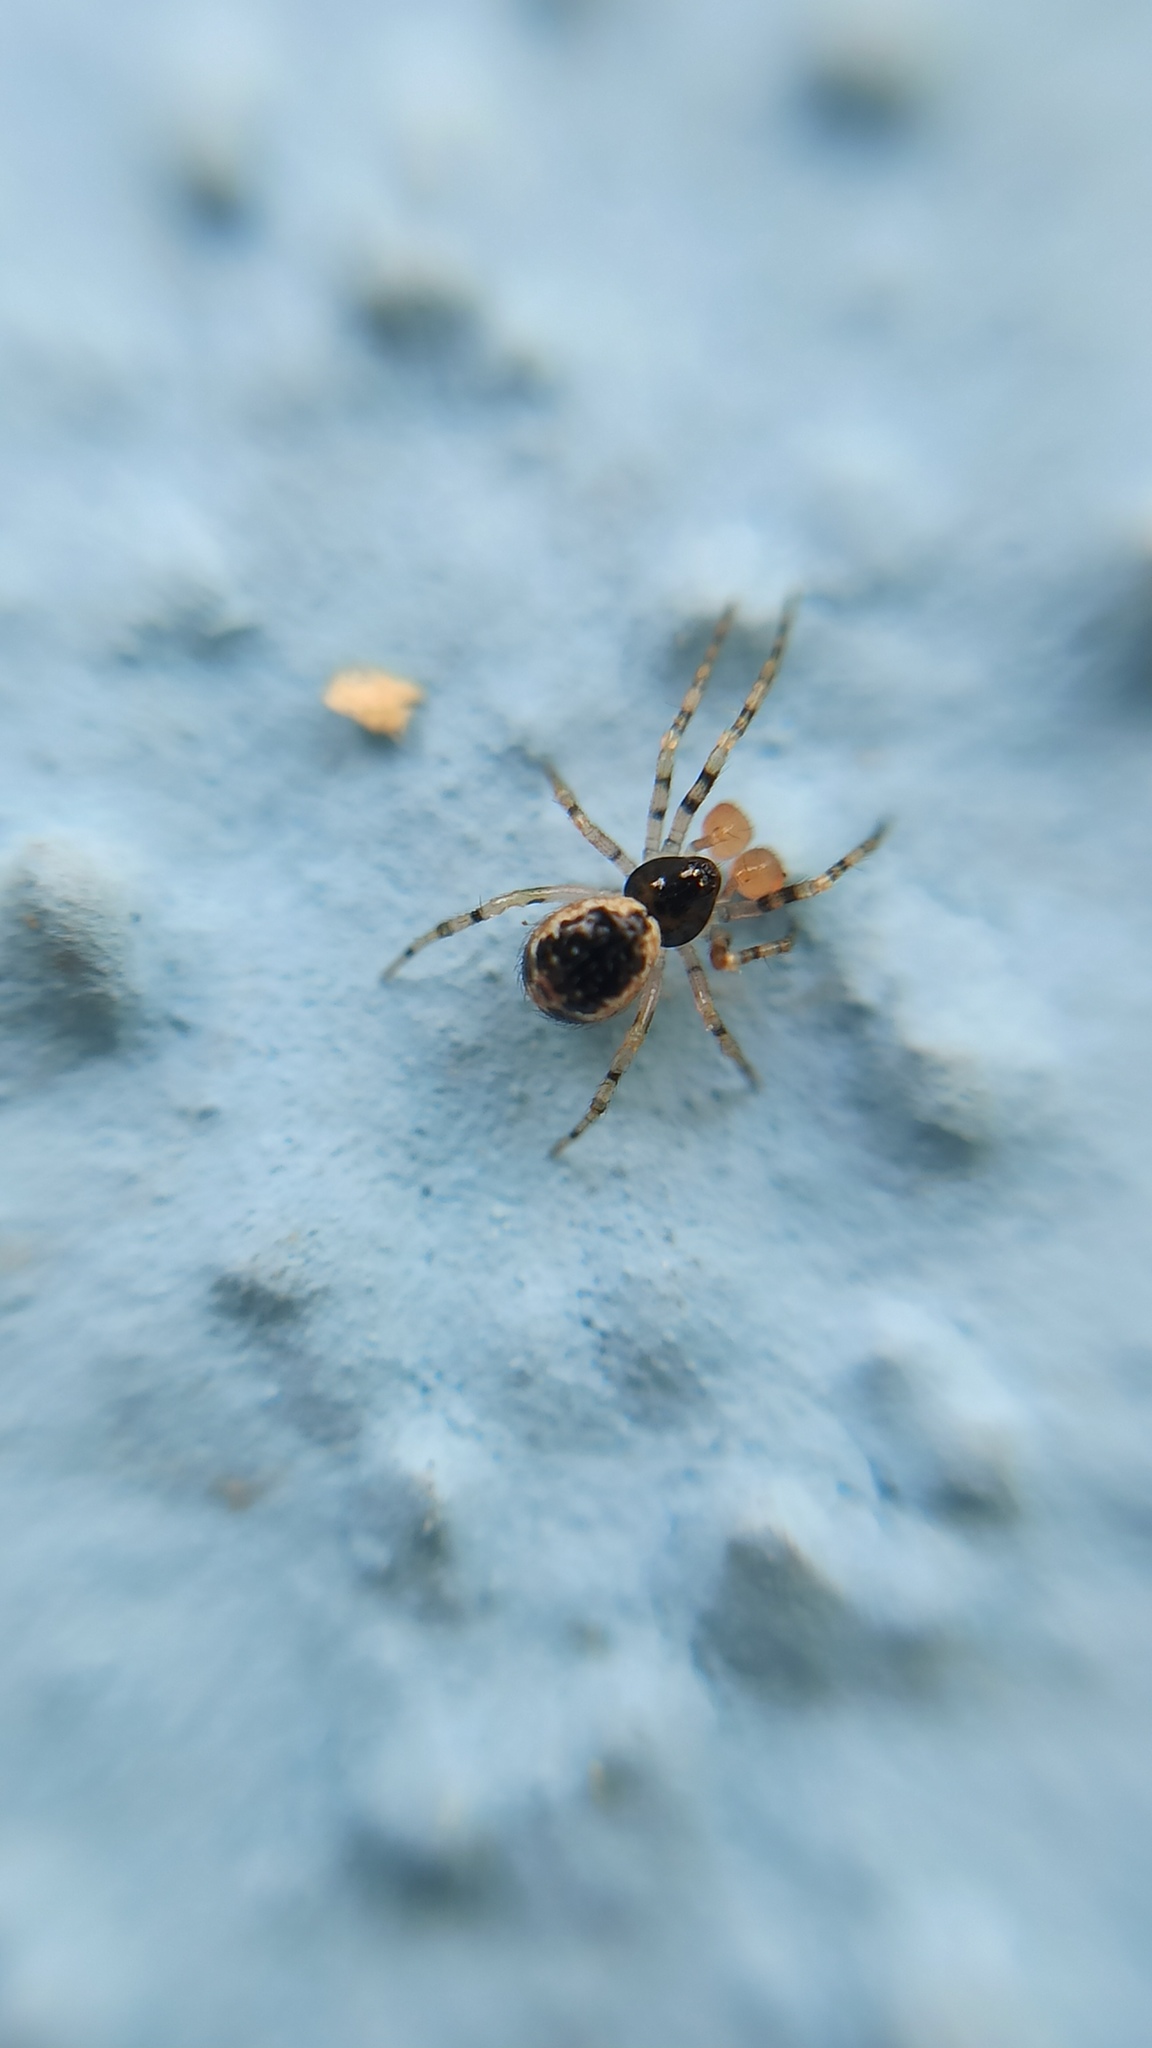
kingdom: Animalia
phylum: Arthropoda
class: Arachnida
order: Araneae
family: Theridiidae
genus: Sardinidion
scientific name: Sardinidion blackwalli
